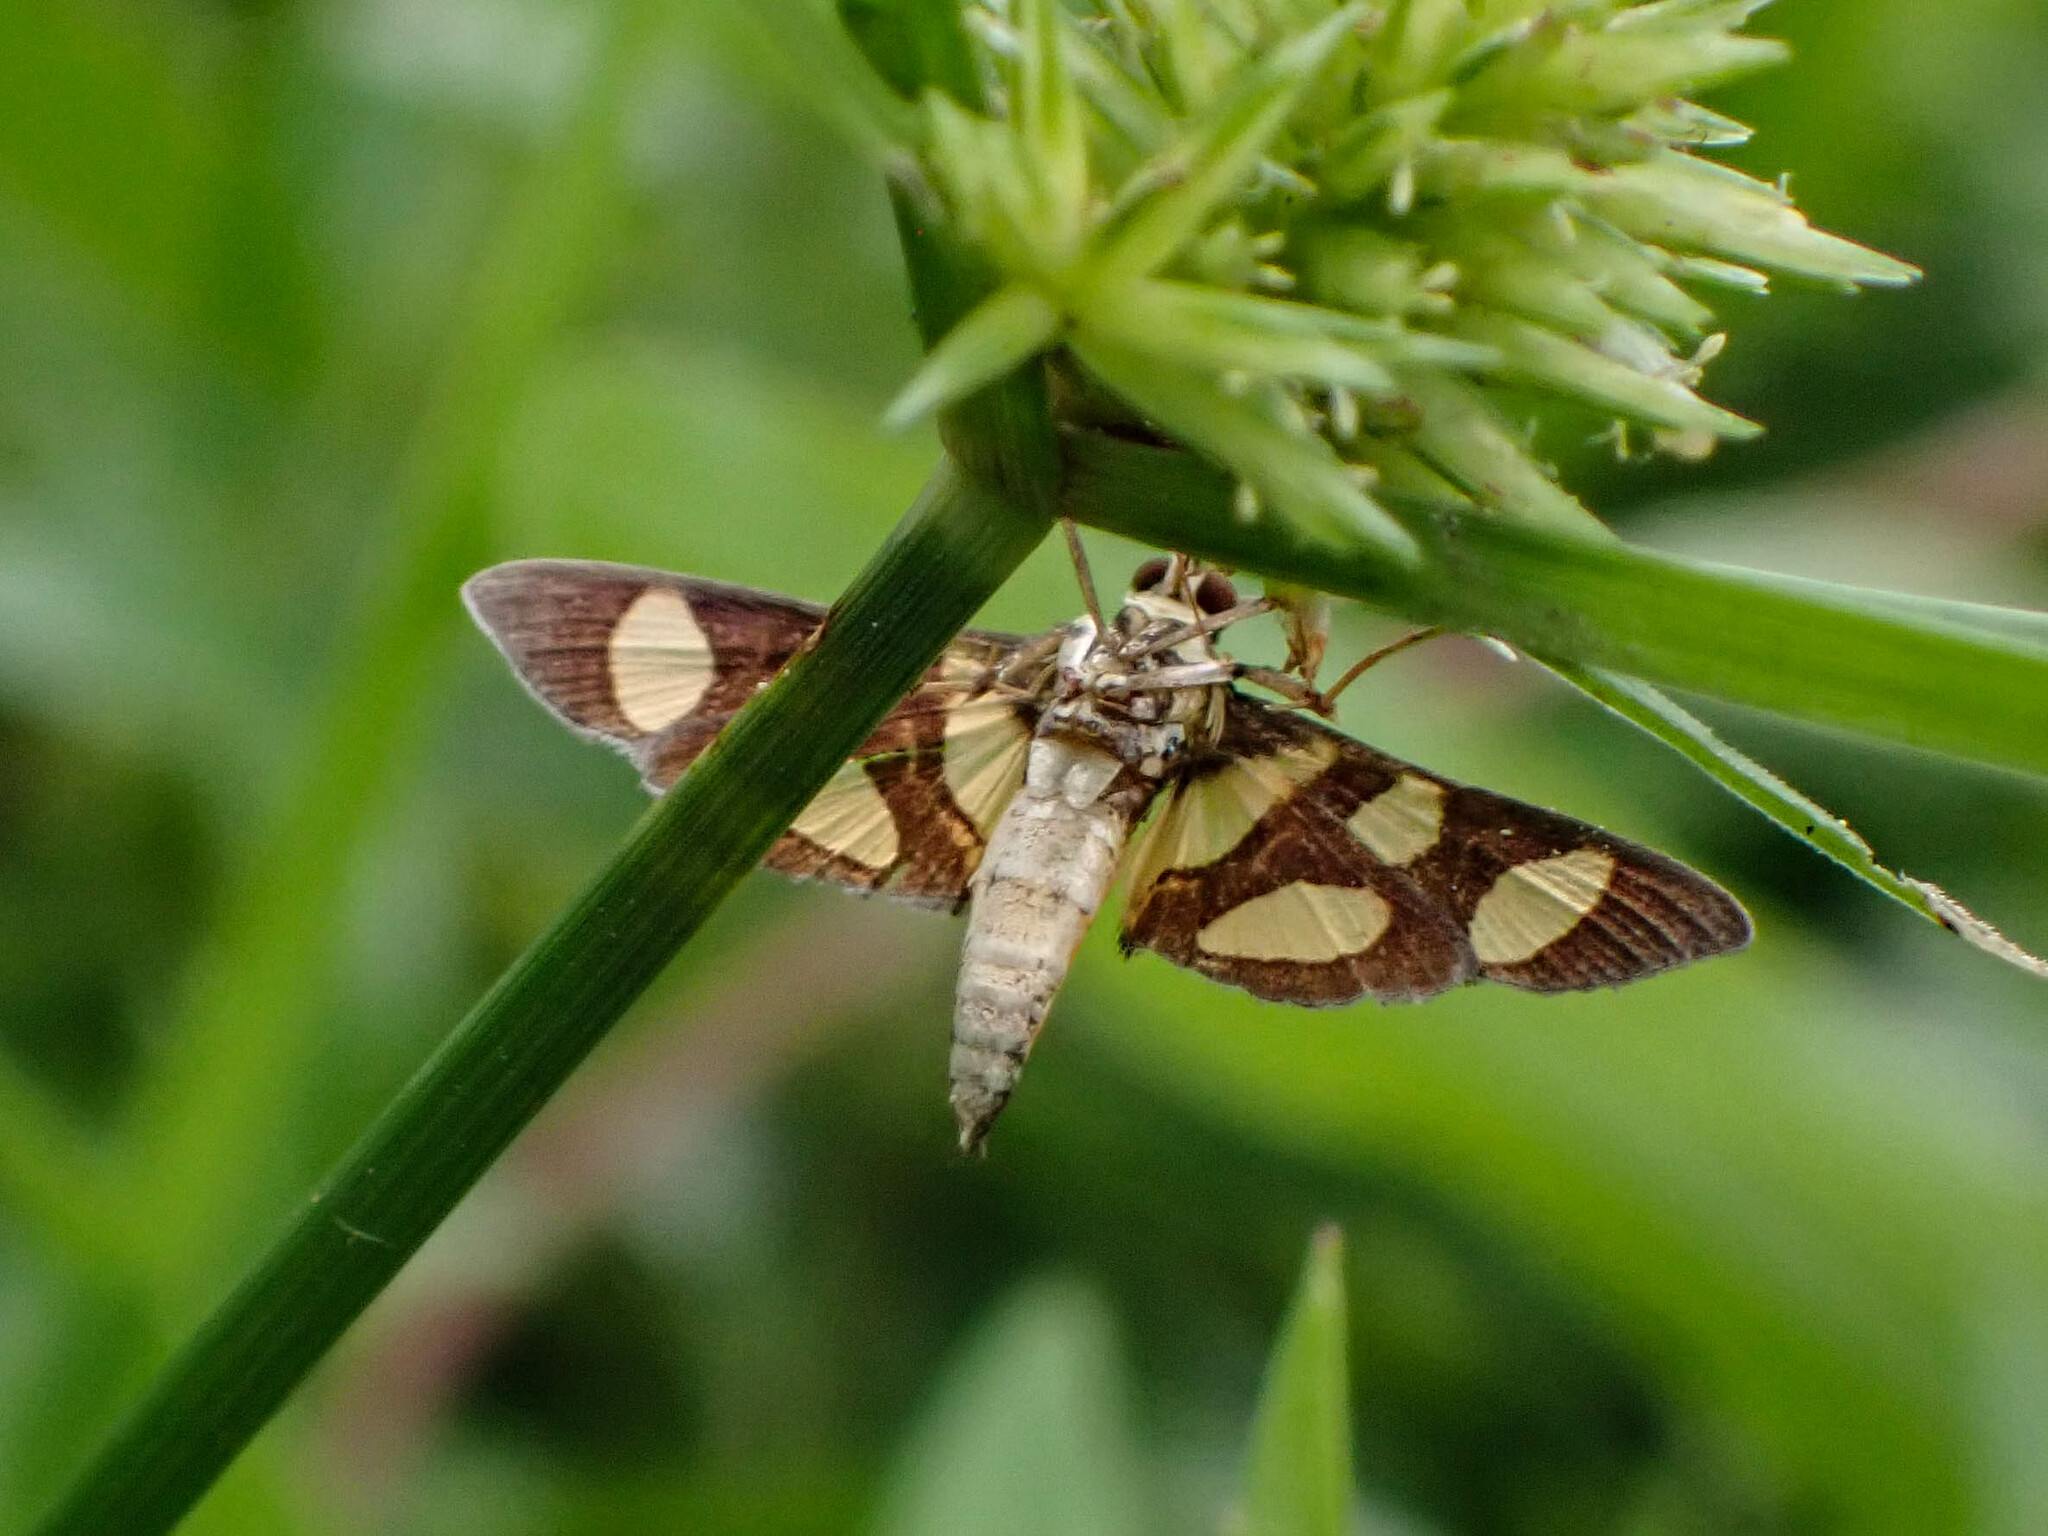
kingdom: Animalia
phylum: Arthropoda
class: Insecta
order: Lepidoptera
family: Crambidae
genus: Syngamia
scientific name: Syngamia florella
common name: Orange-spotted flower moth
